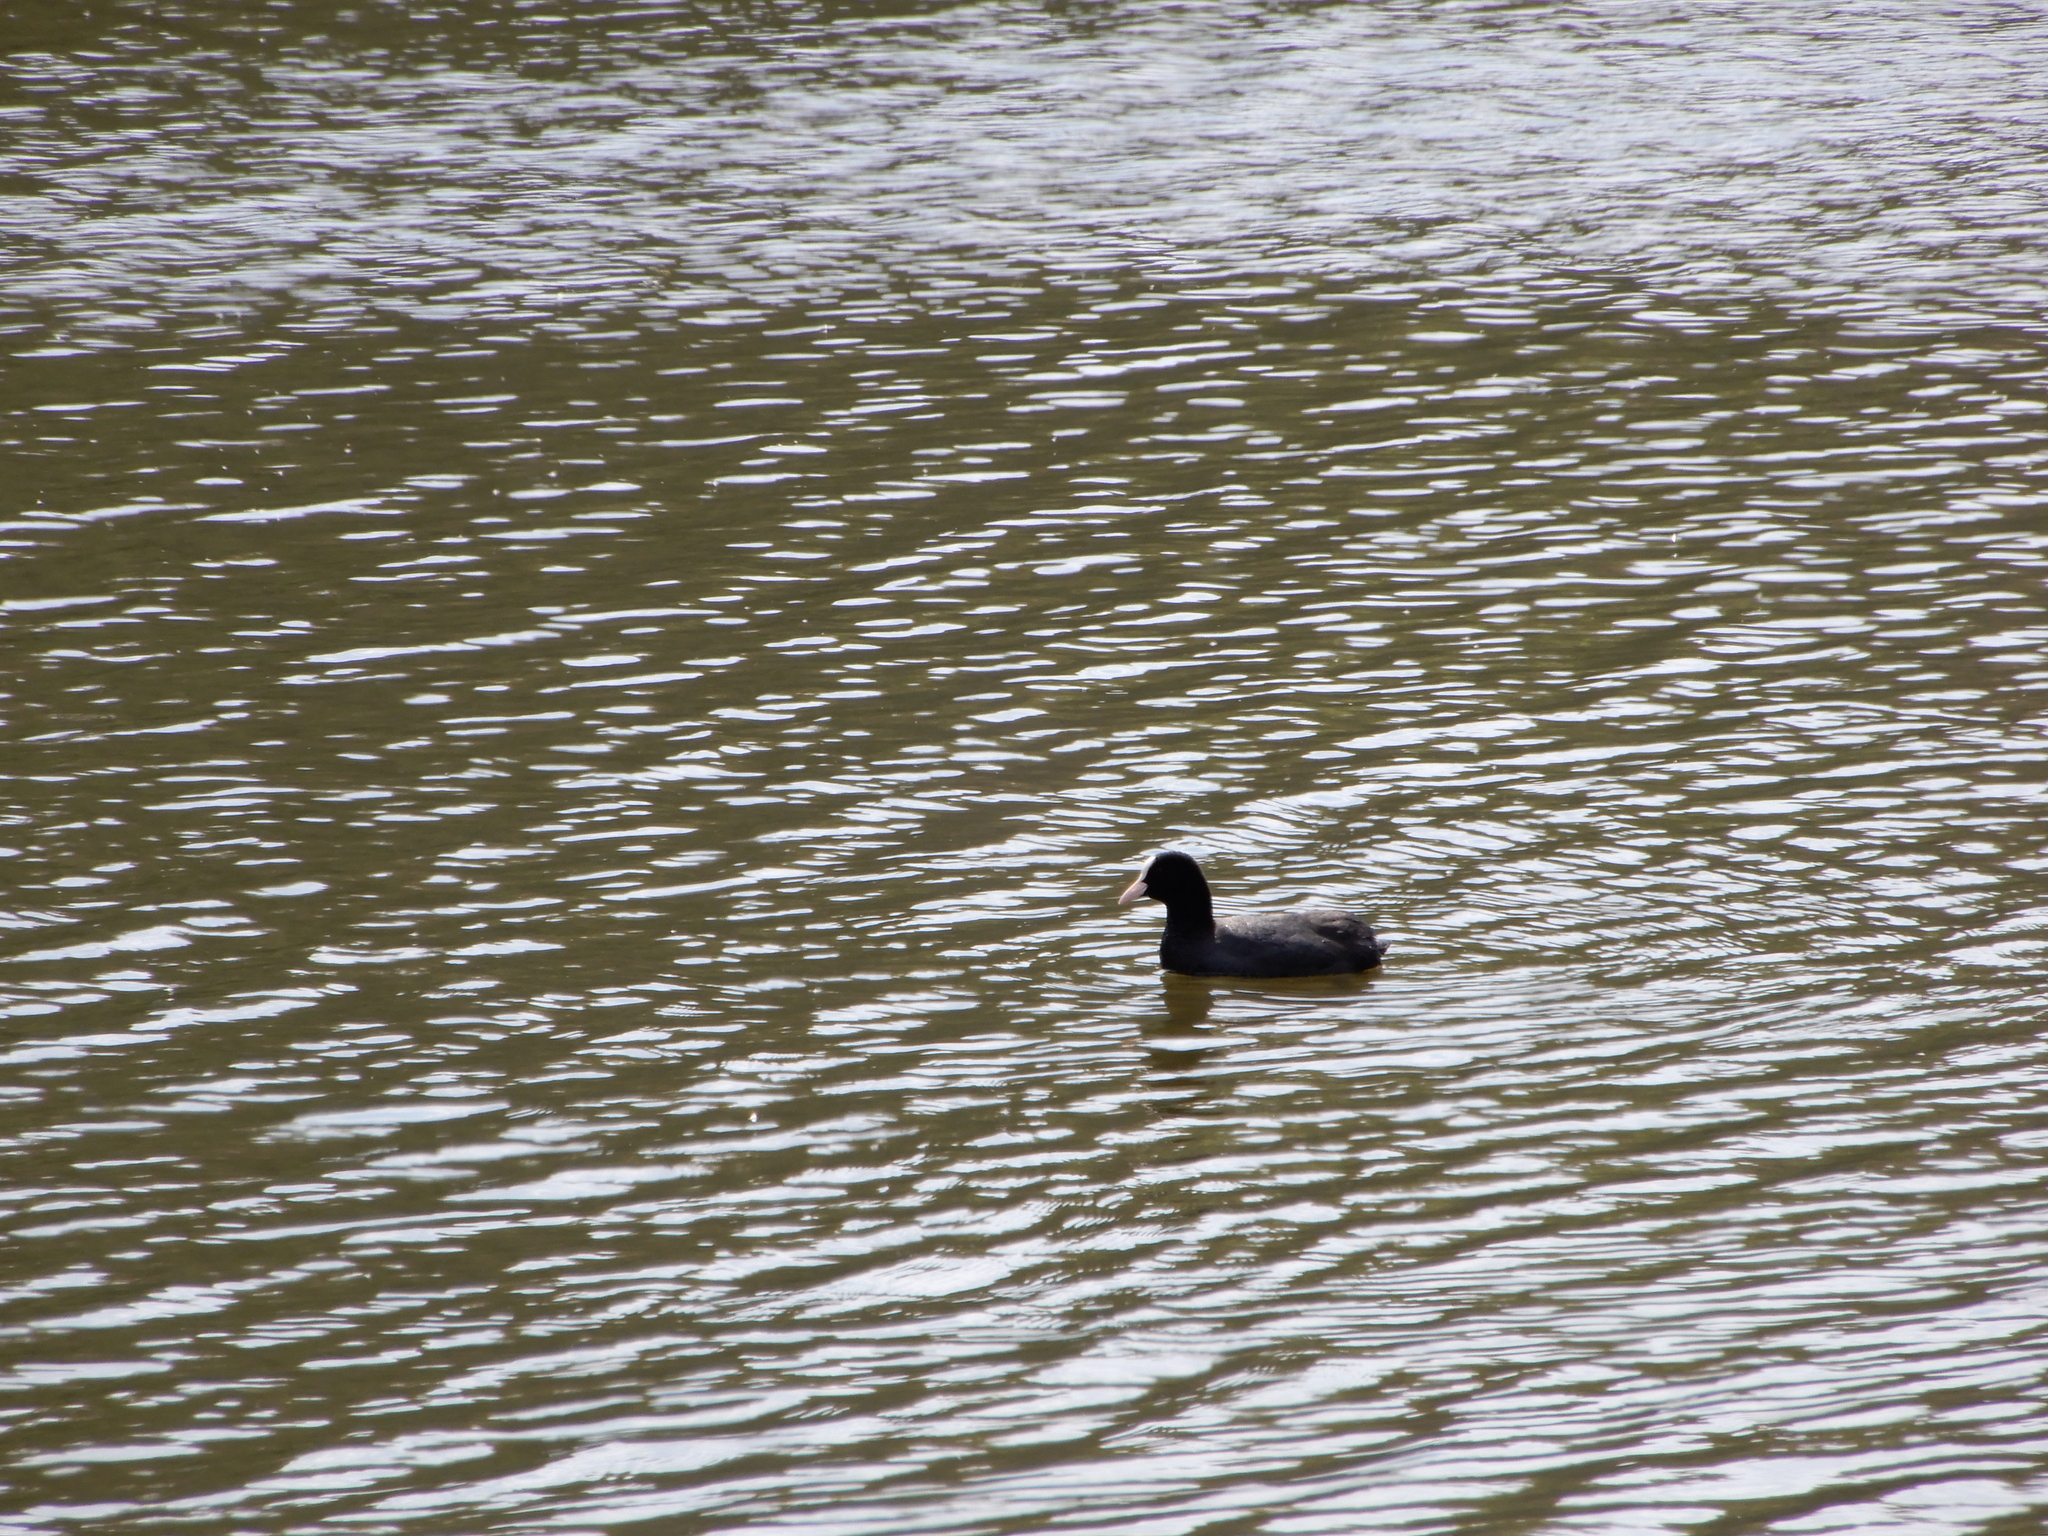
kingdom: Animalia
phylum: Chordata
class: Aves
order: Gruiformes
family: Rallidae
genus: Fulica
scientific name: Fulica atra
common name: Eurasian coot
